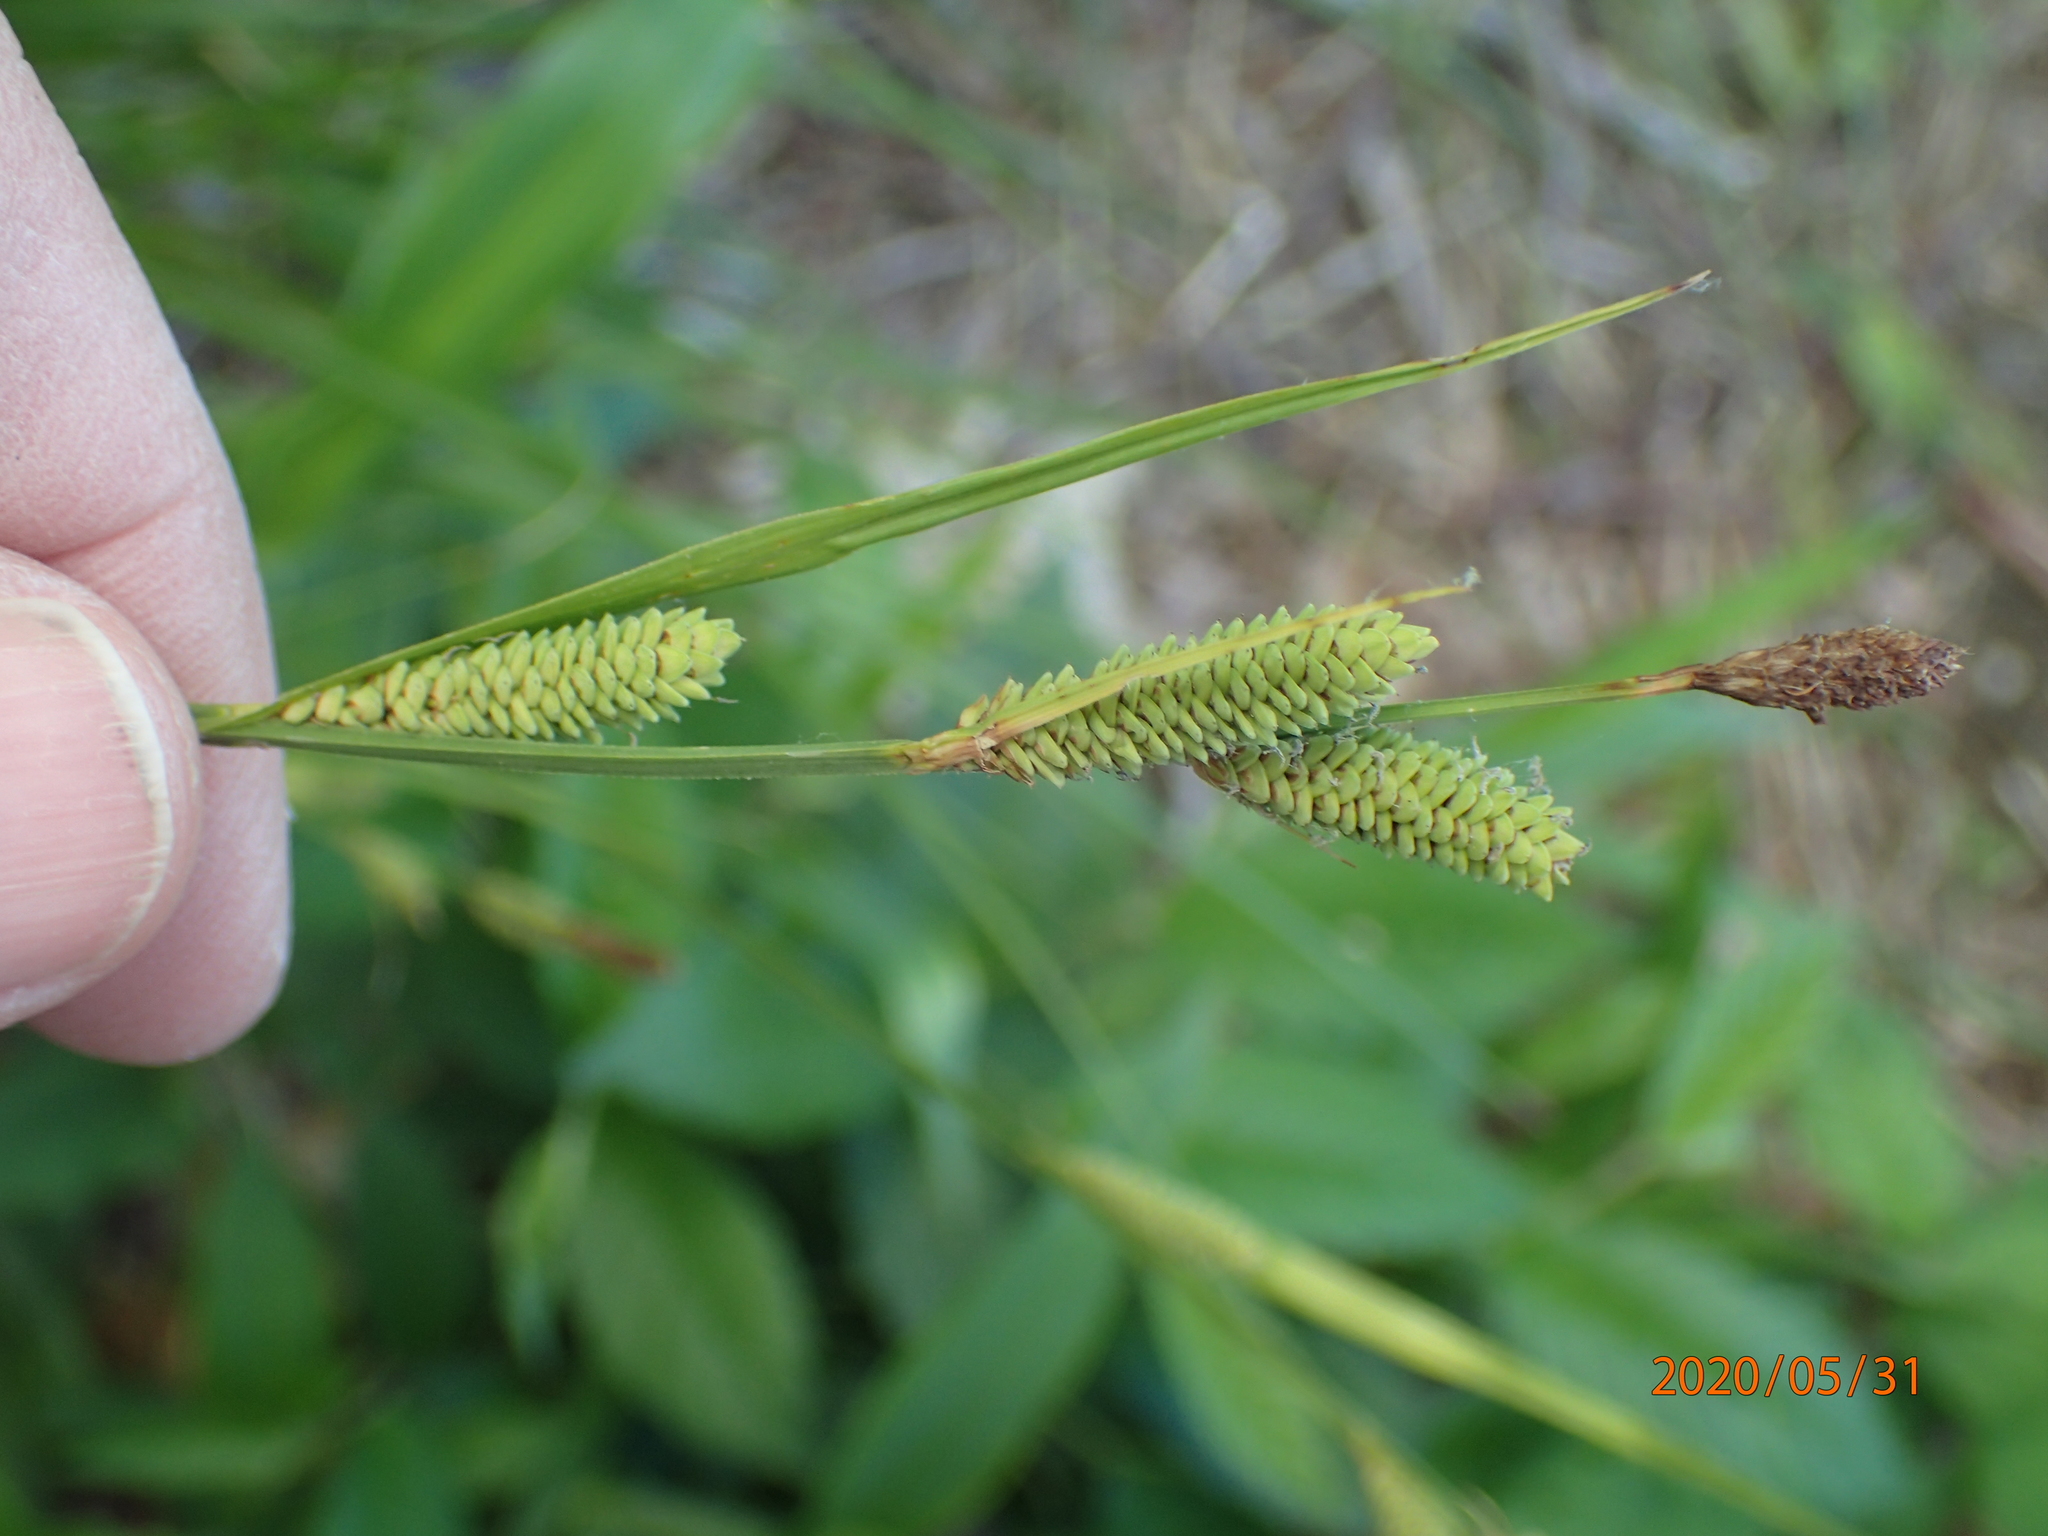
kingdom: Plantae
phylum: Tracheophyta
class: Liliopsida
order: Poales
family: Cyperaceae
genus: Carex
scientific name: Carex stricta
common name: Hummock sedge
